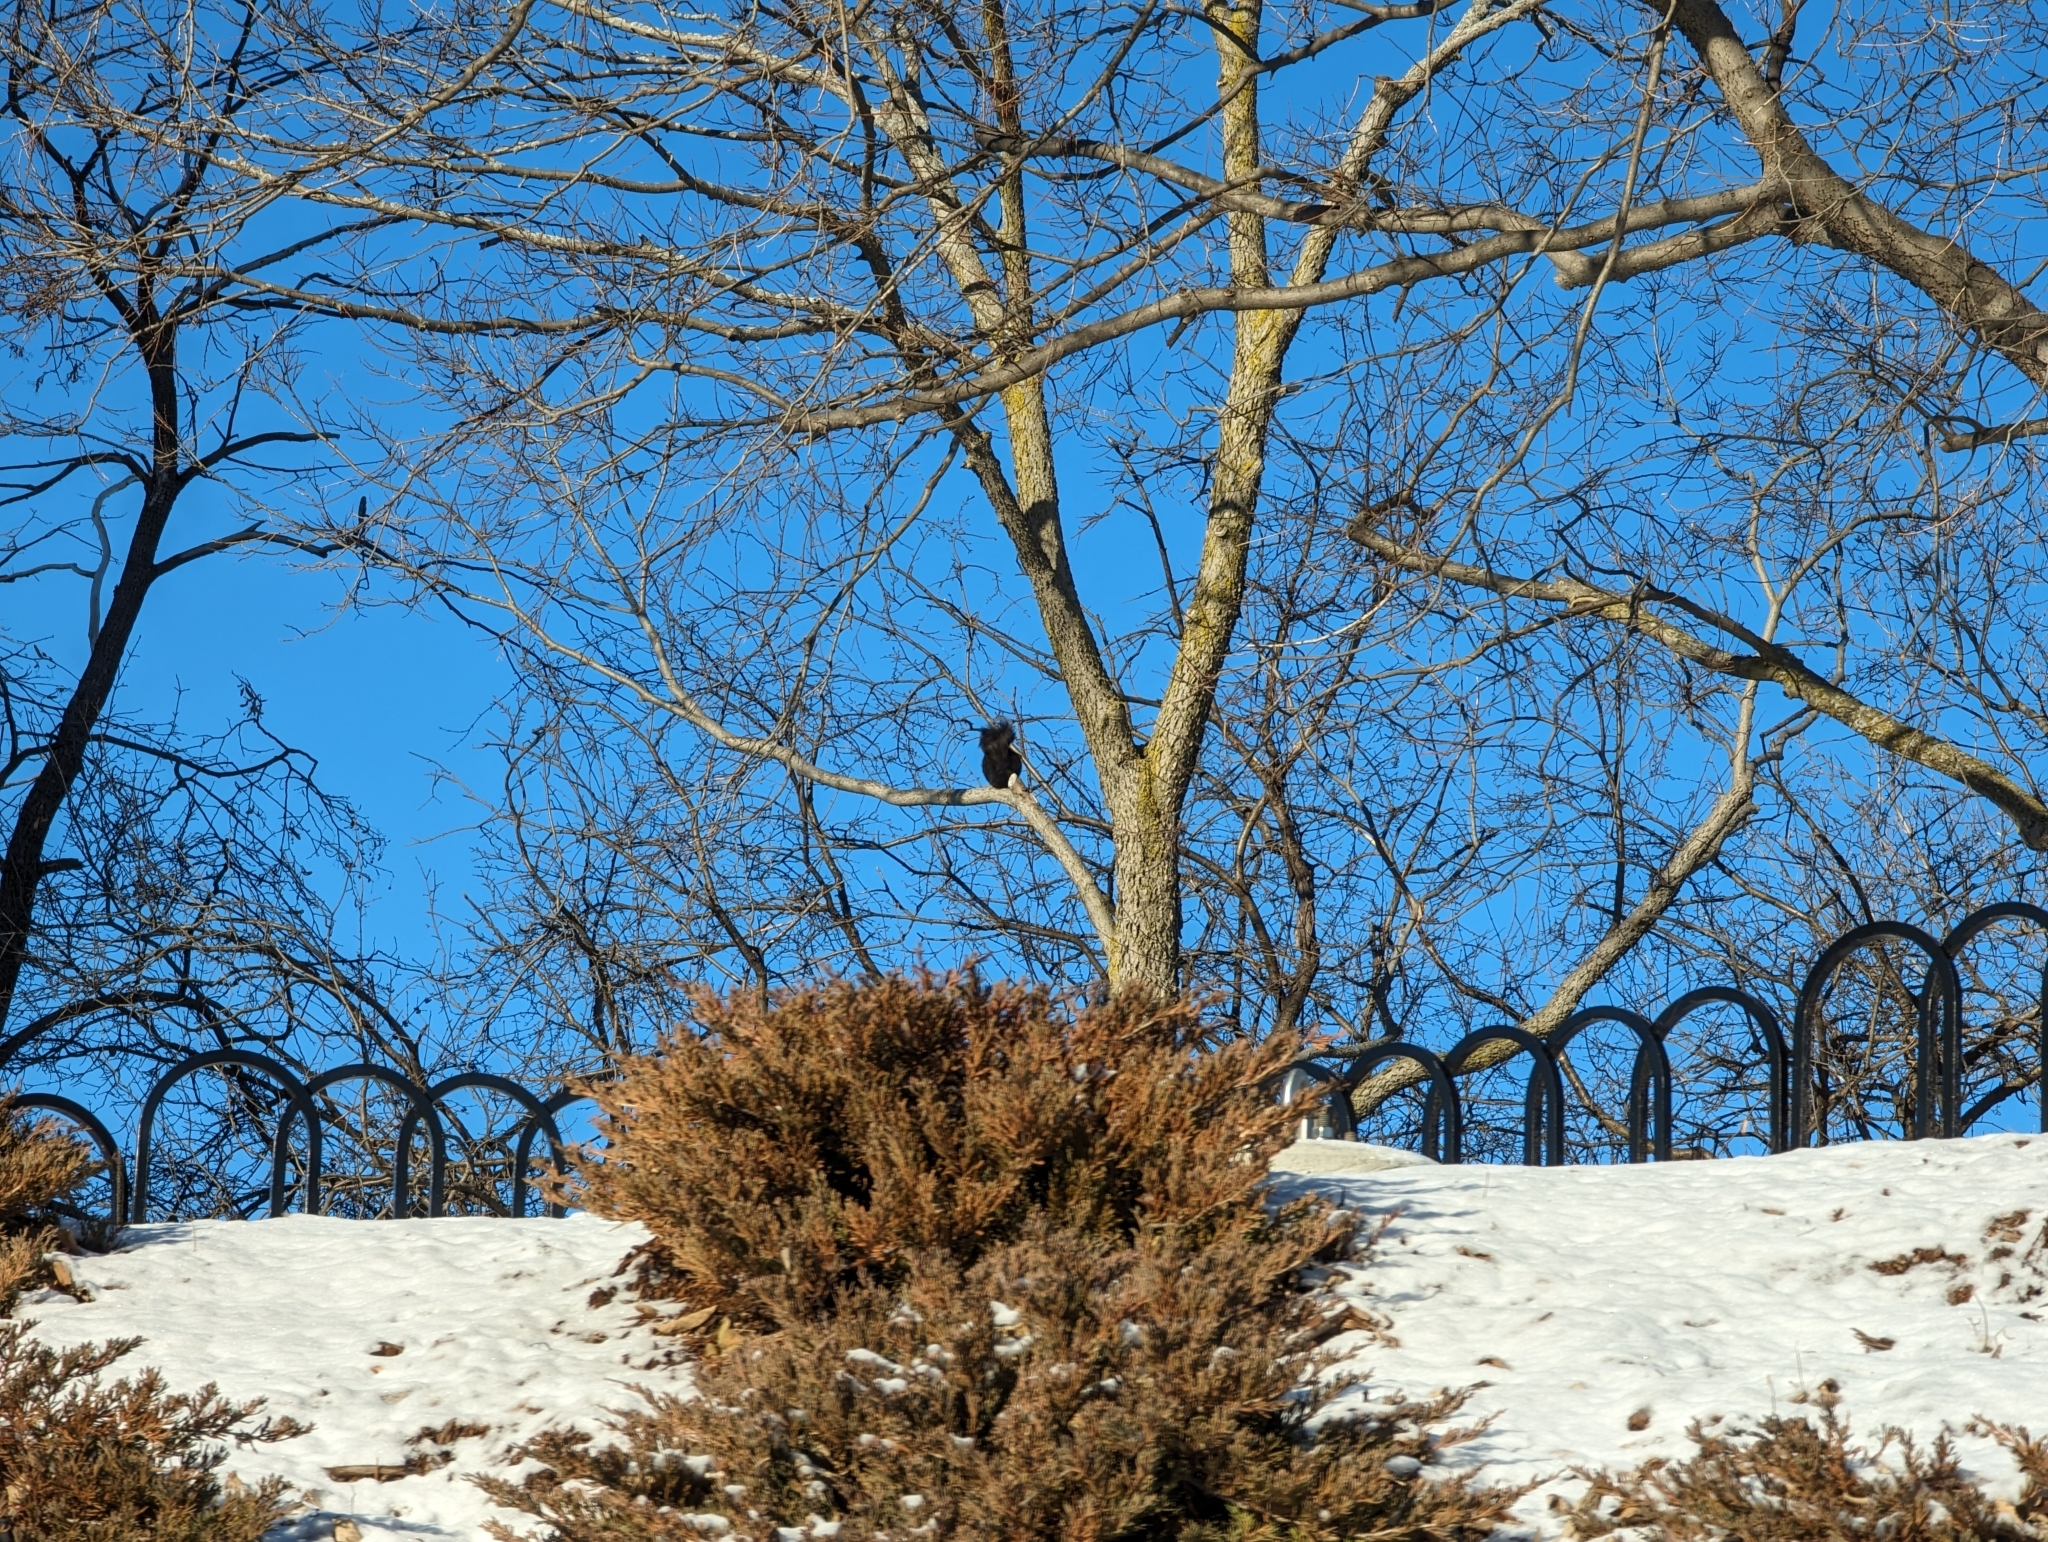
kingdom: Animalia
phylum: Chordata
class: Mammalia
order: Rodentia
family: Sciuridae
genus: Sciurus
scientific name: Sciurus carolinensis
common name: Eastern gray squirrel
